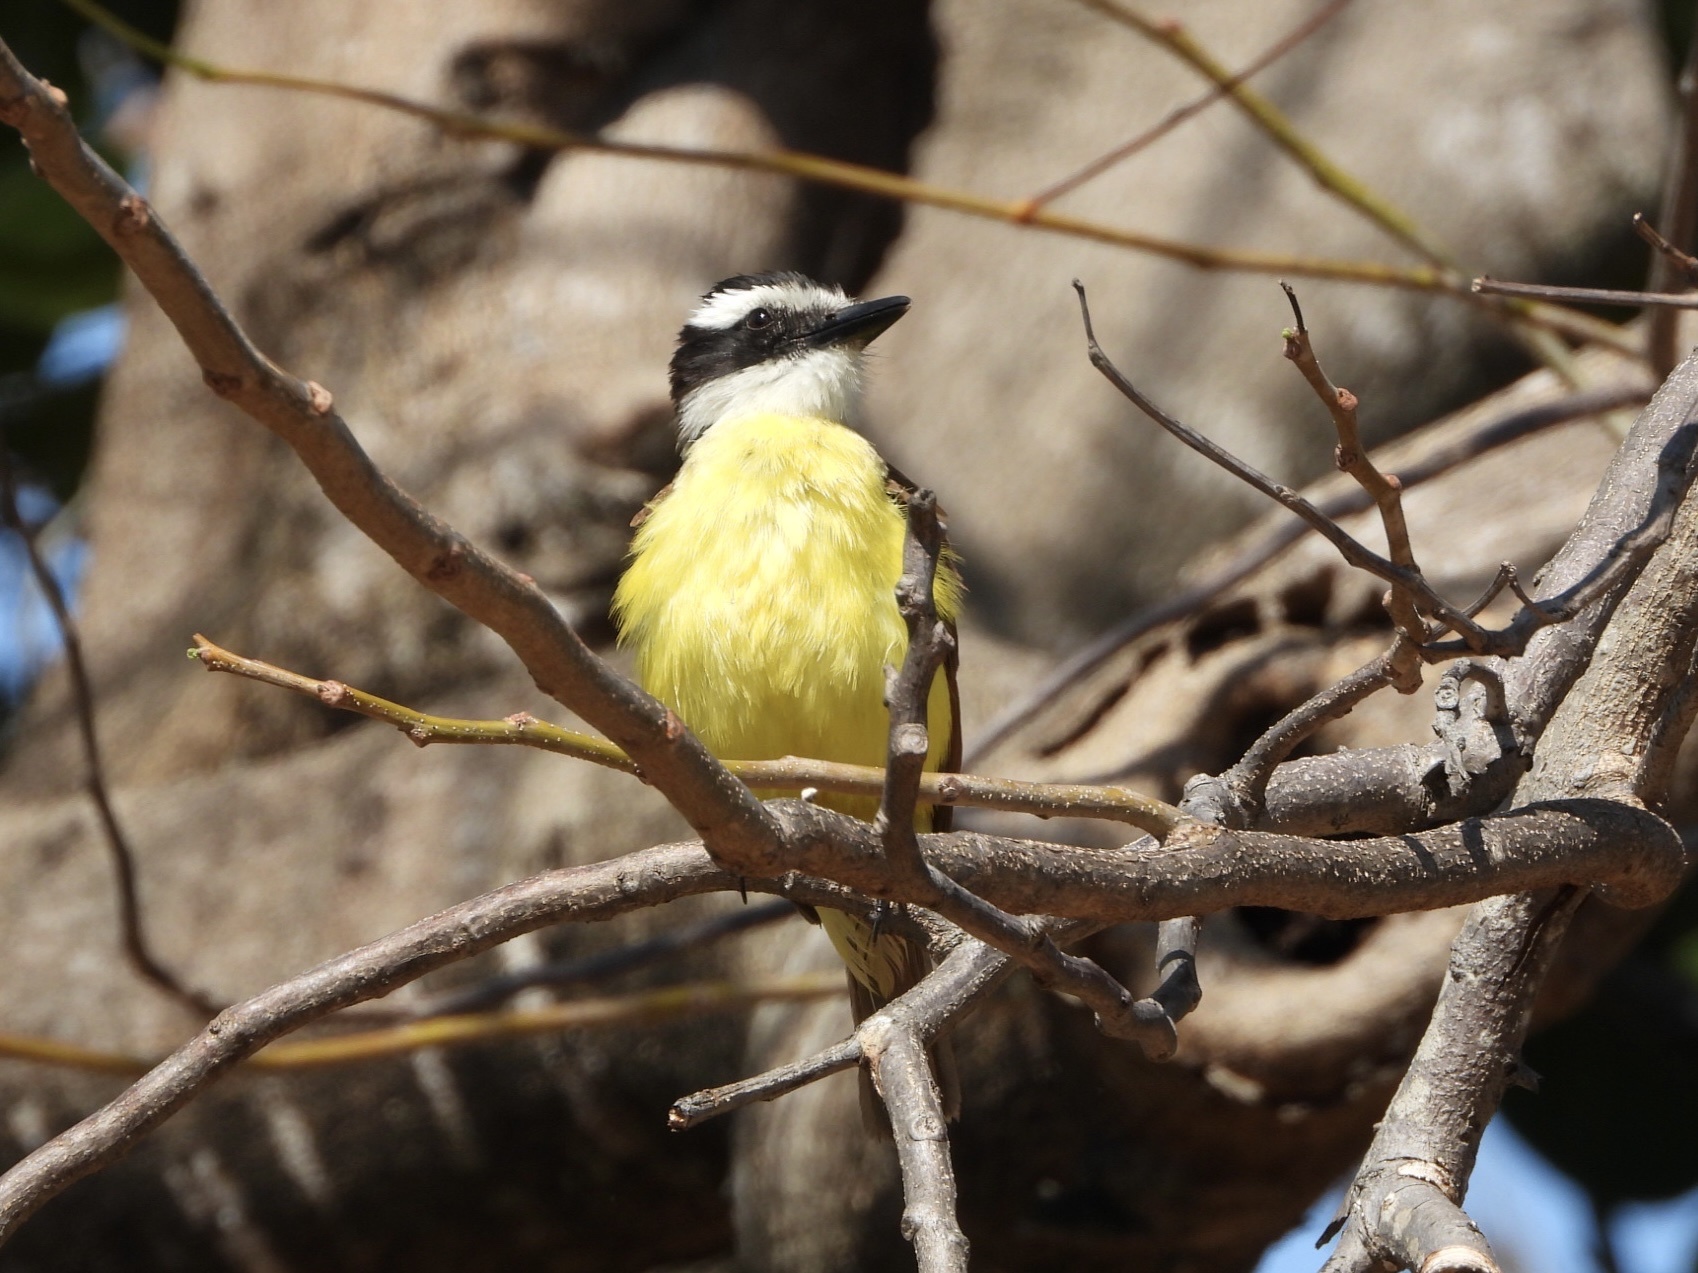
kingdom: Animalia
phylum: Chordata
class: Aves
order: Passeriformes
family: Tyrannidae
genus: Pitangus
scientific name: Pitangus sulphuratus
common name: Great kiskadee
